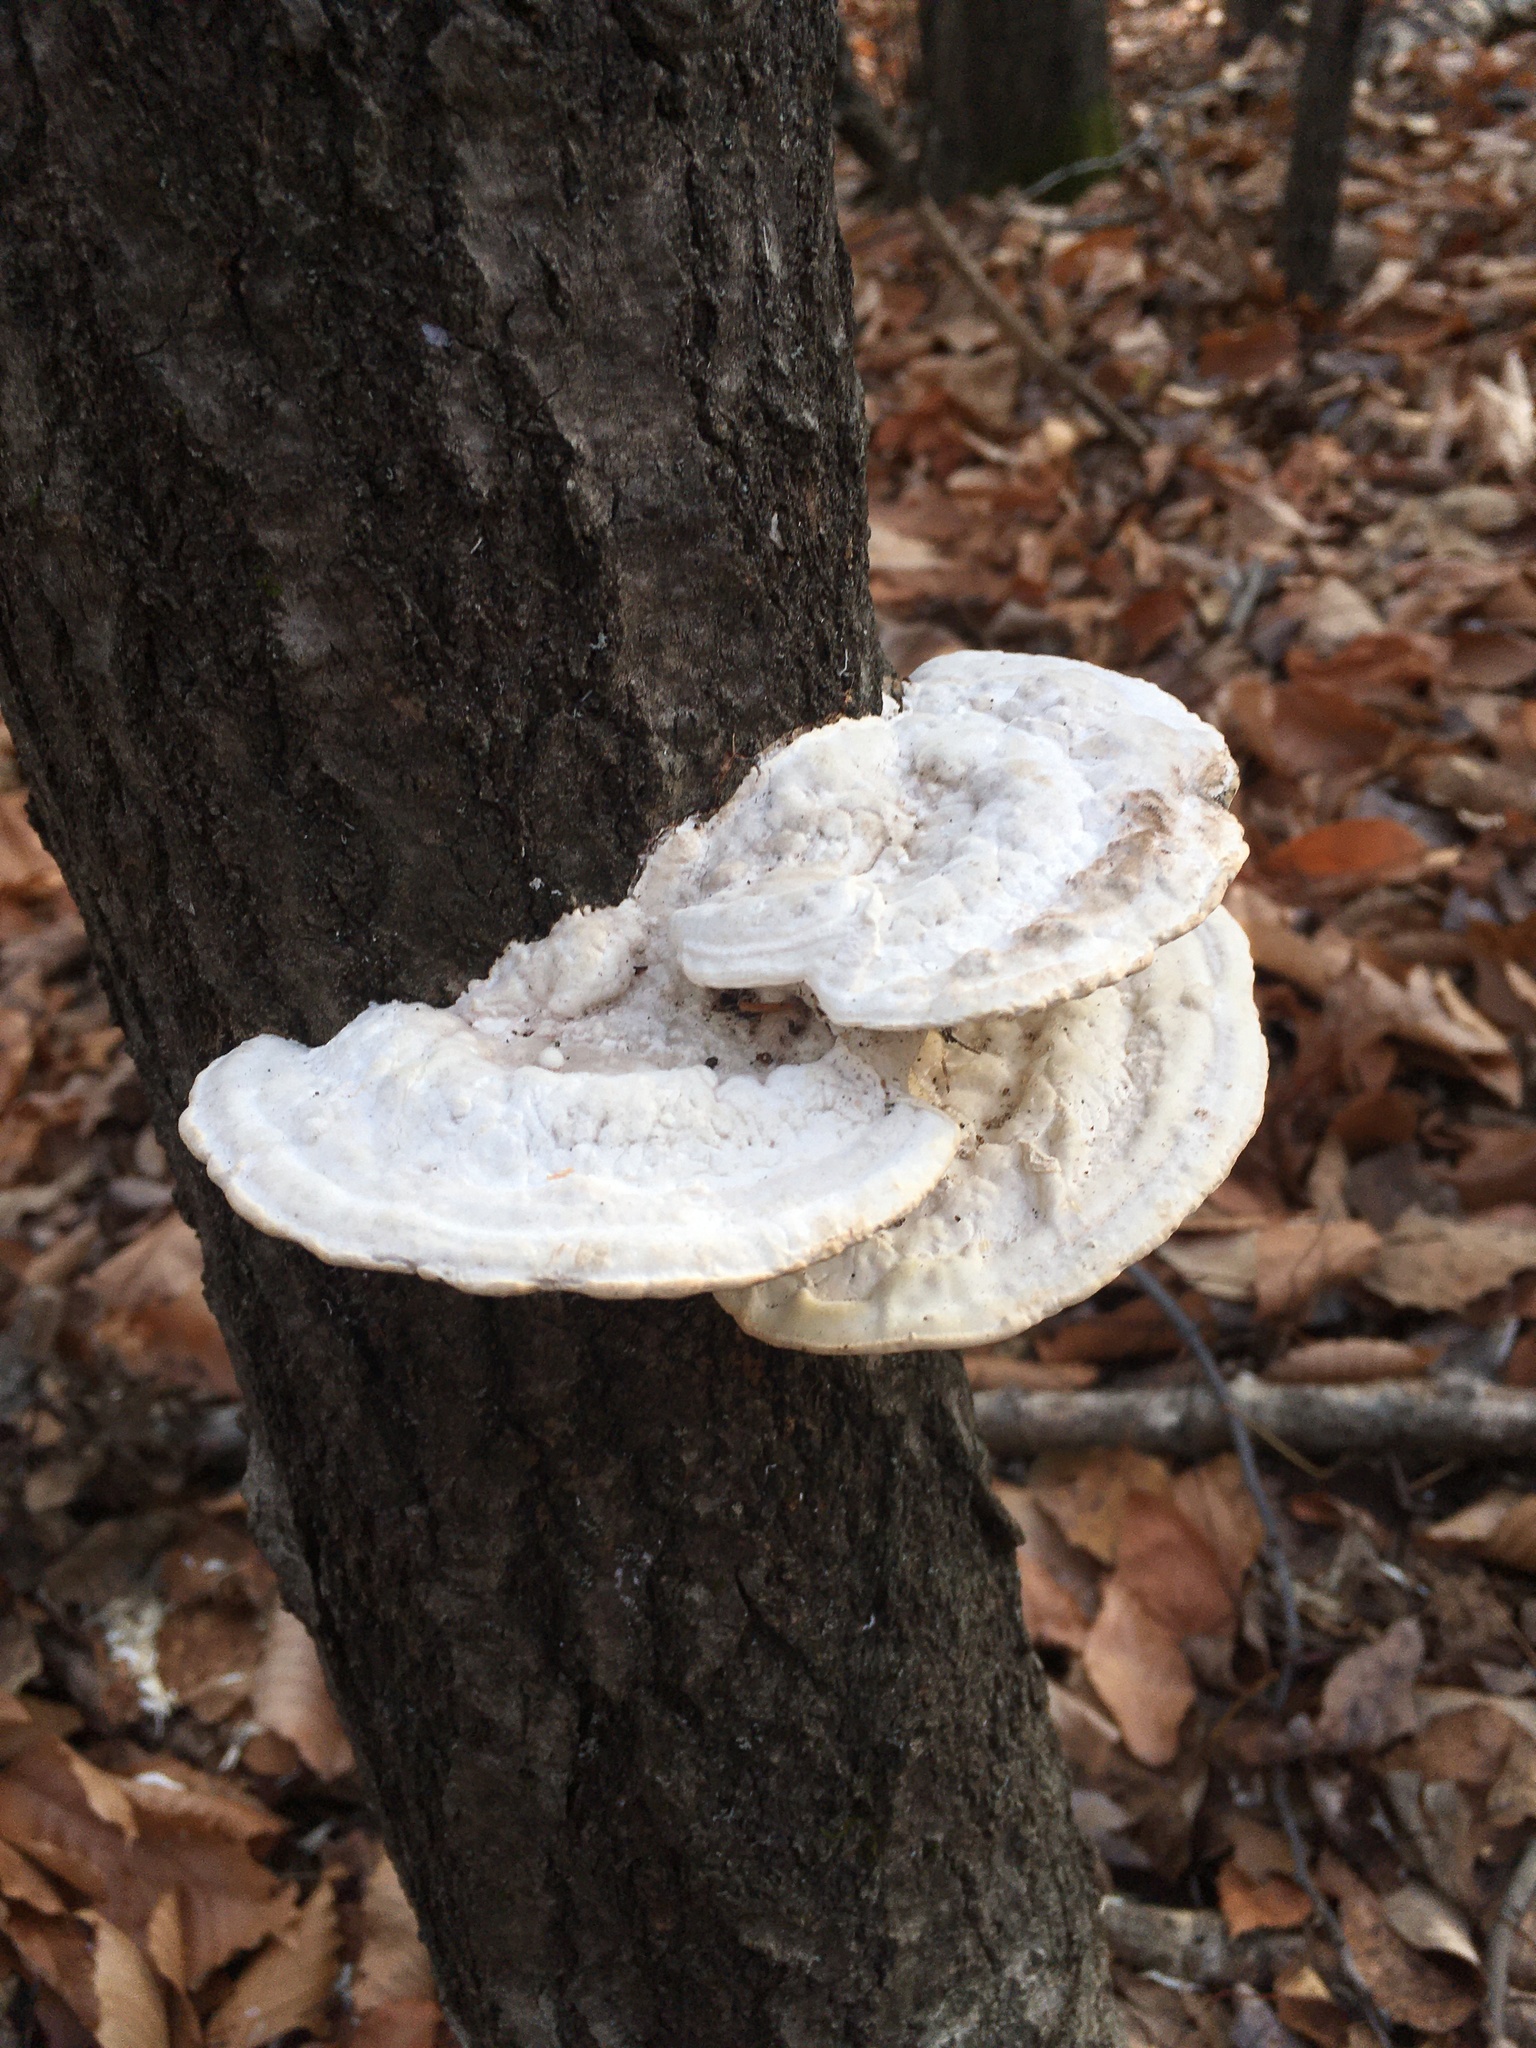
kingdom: Fungi
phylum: Basidiomycota
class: Agaricomycetes
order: Polyporales
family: Polyporaceae
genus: Trametes
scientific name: Trametes gibbosa
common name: Lumpy bracket
